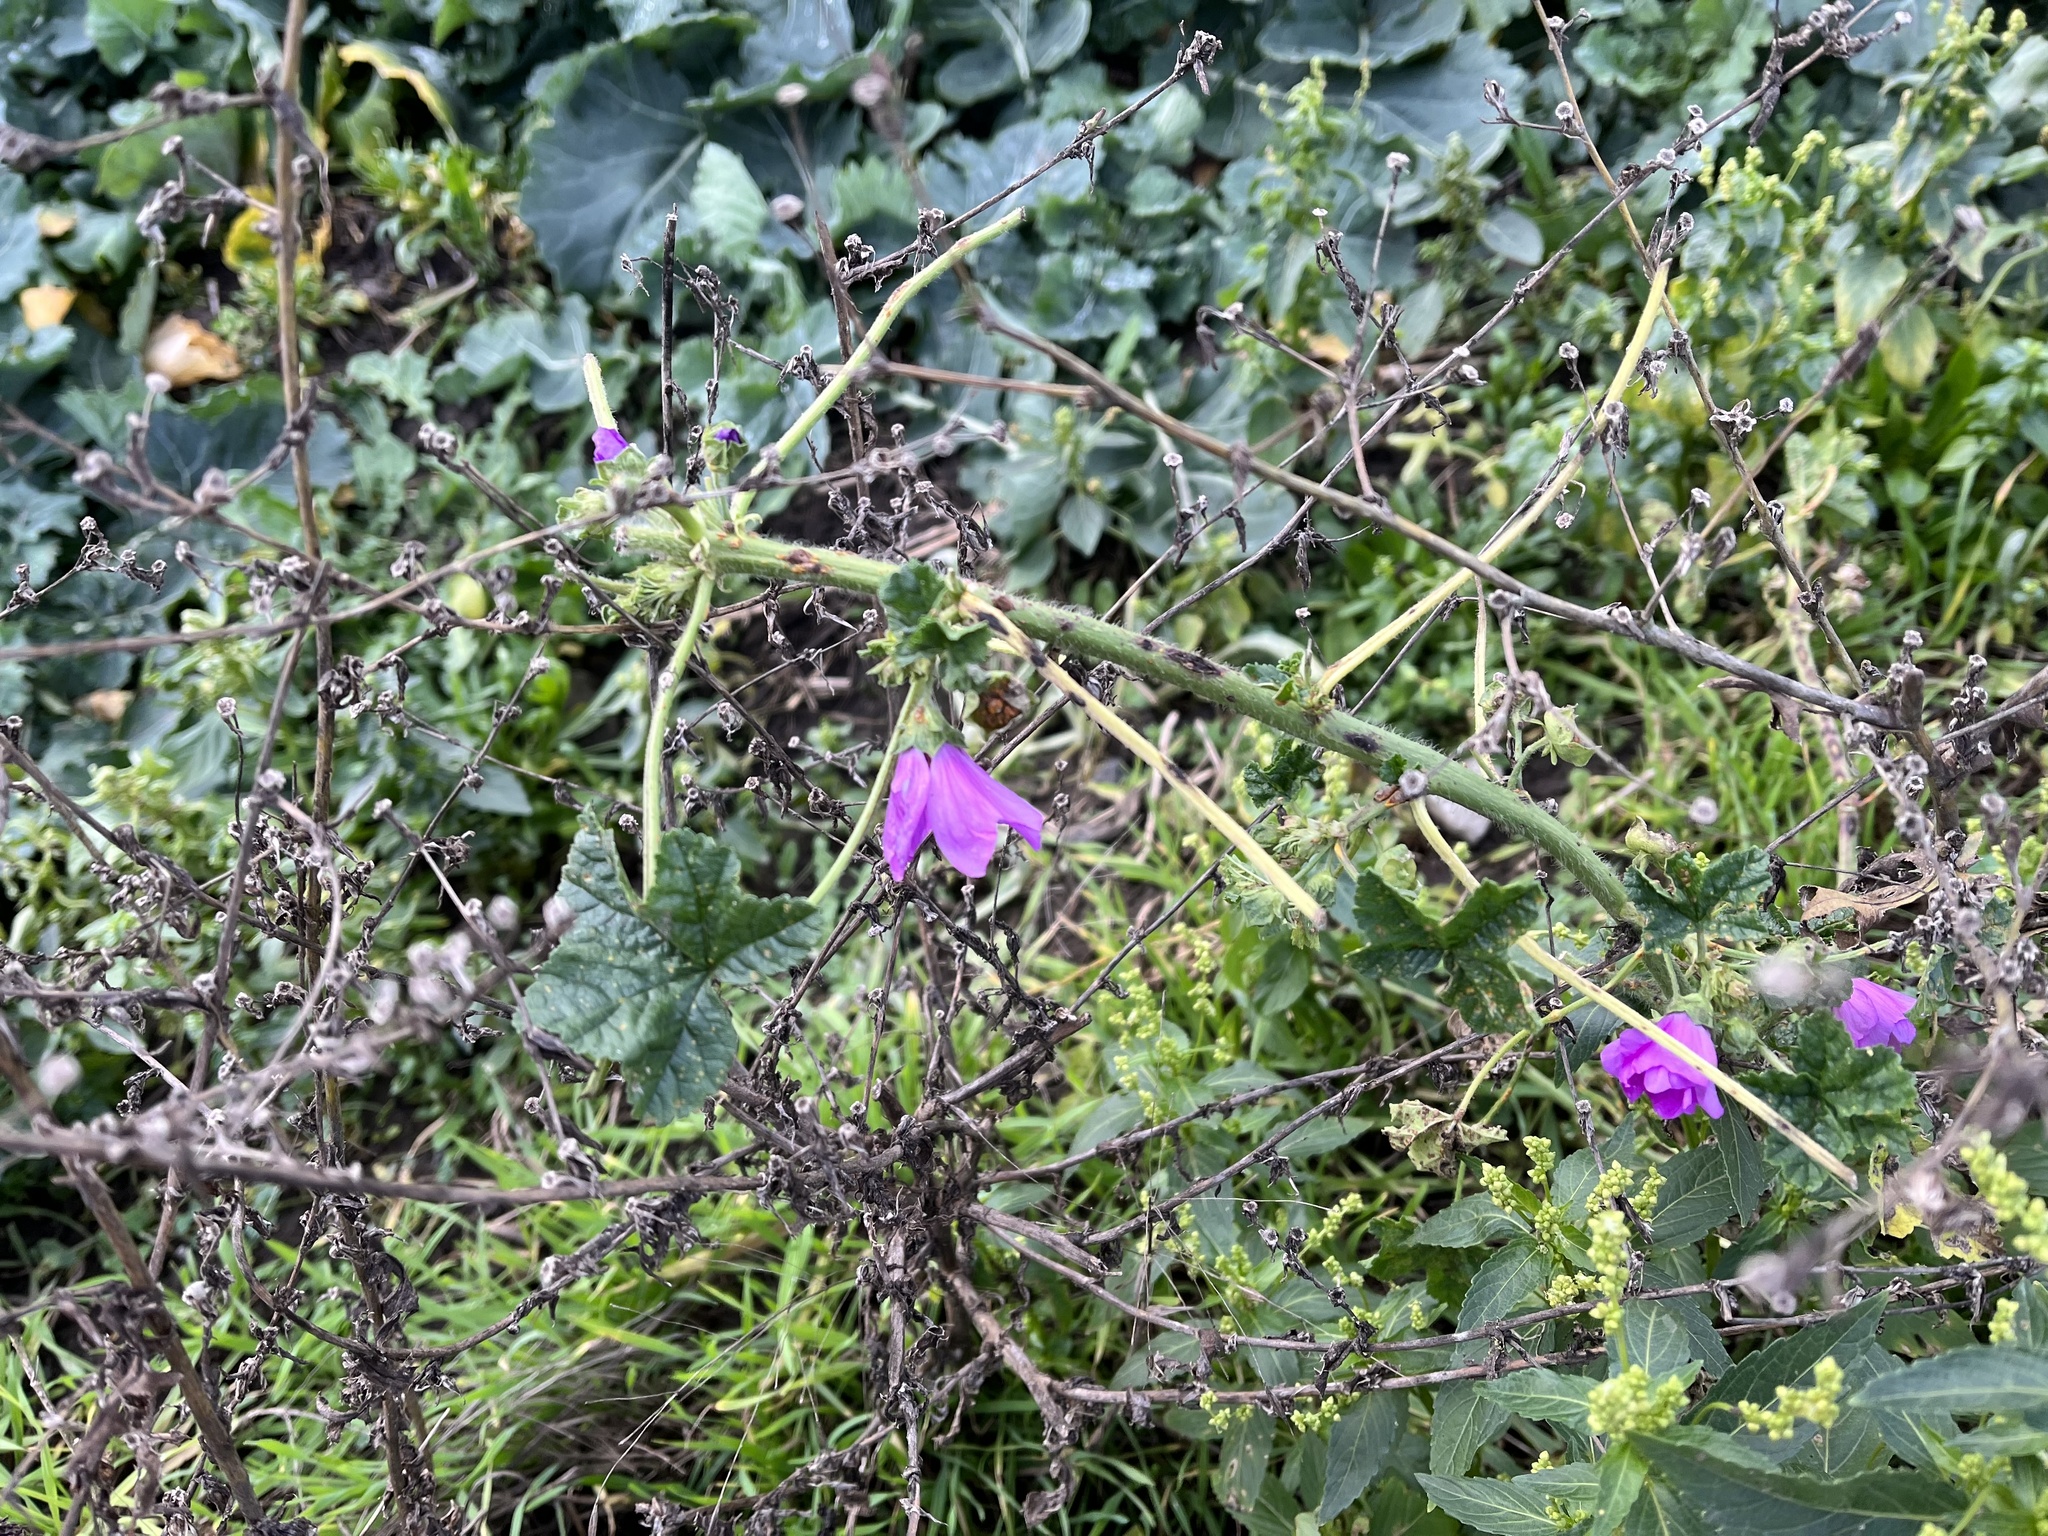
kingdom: Plantae
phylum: Tracheophyta
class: Magnoliopsida
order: Malvales
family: Malvaceae
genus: Malva
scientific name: Malva sylvestris
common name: Common mallow
